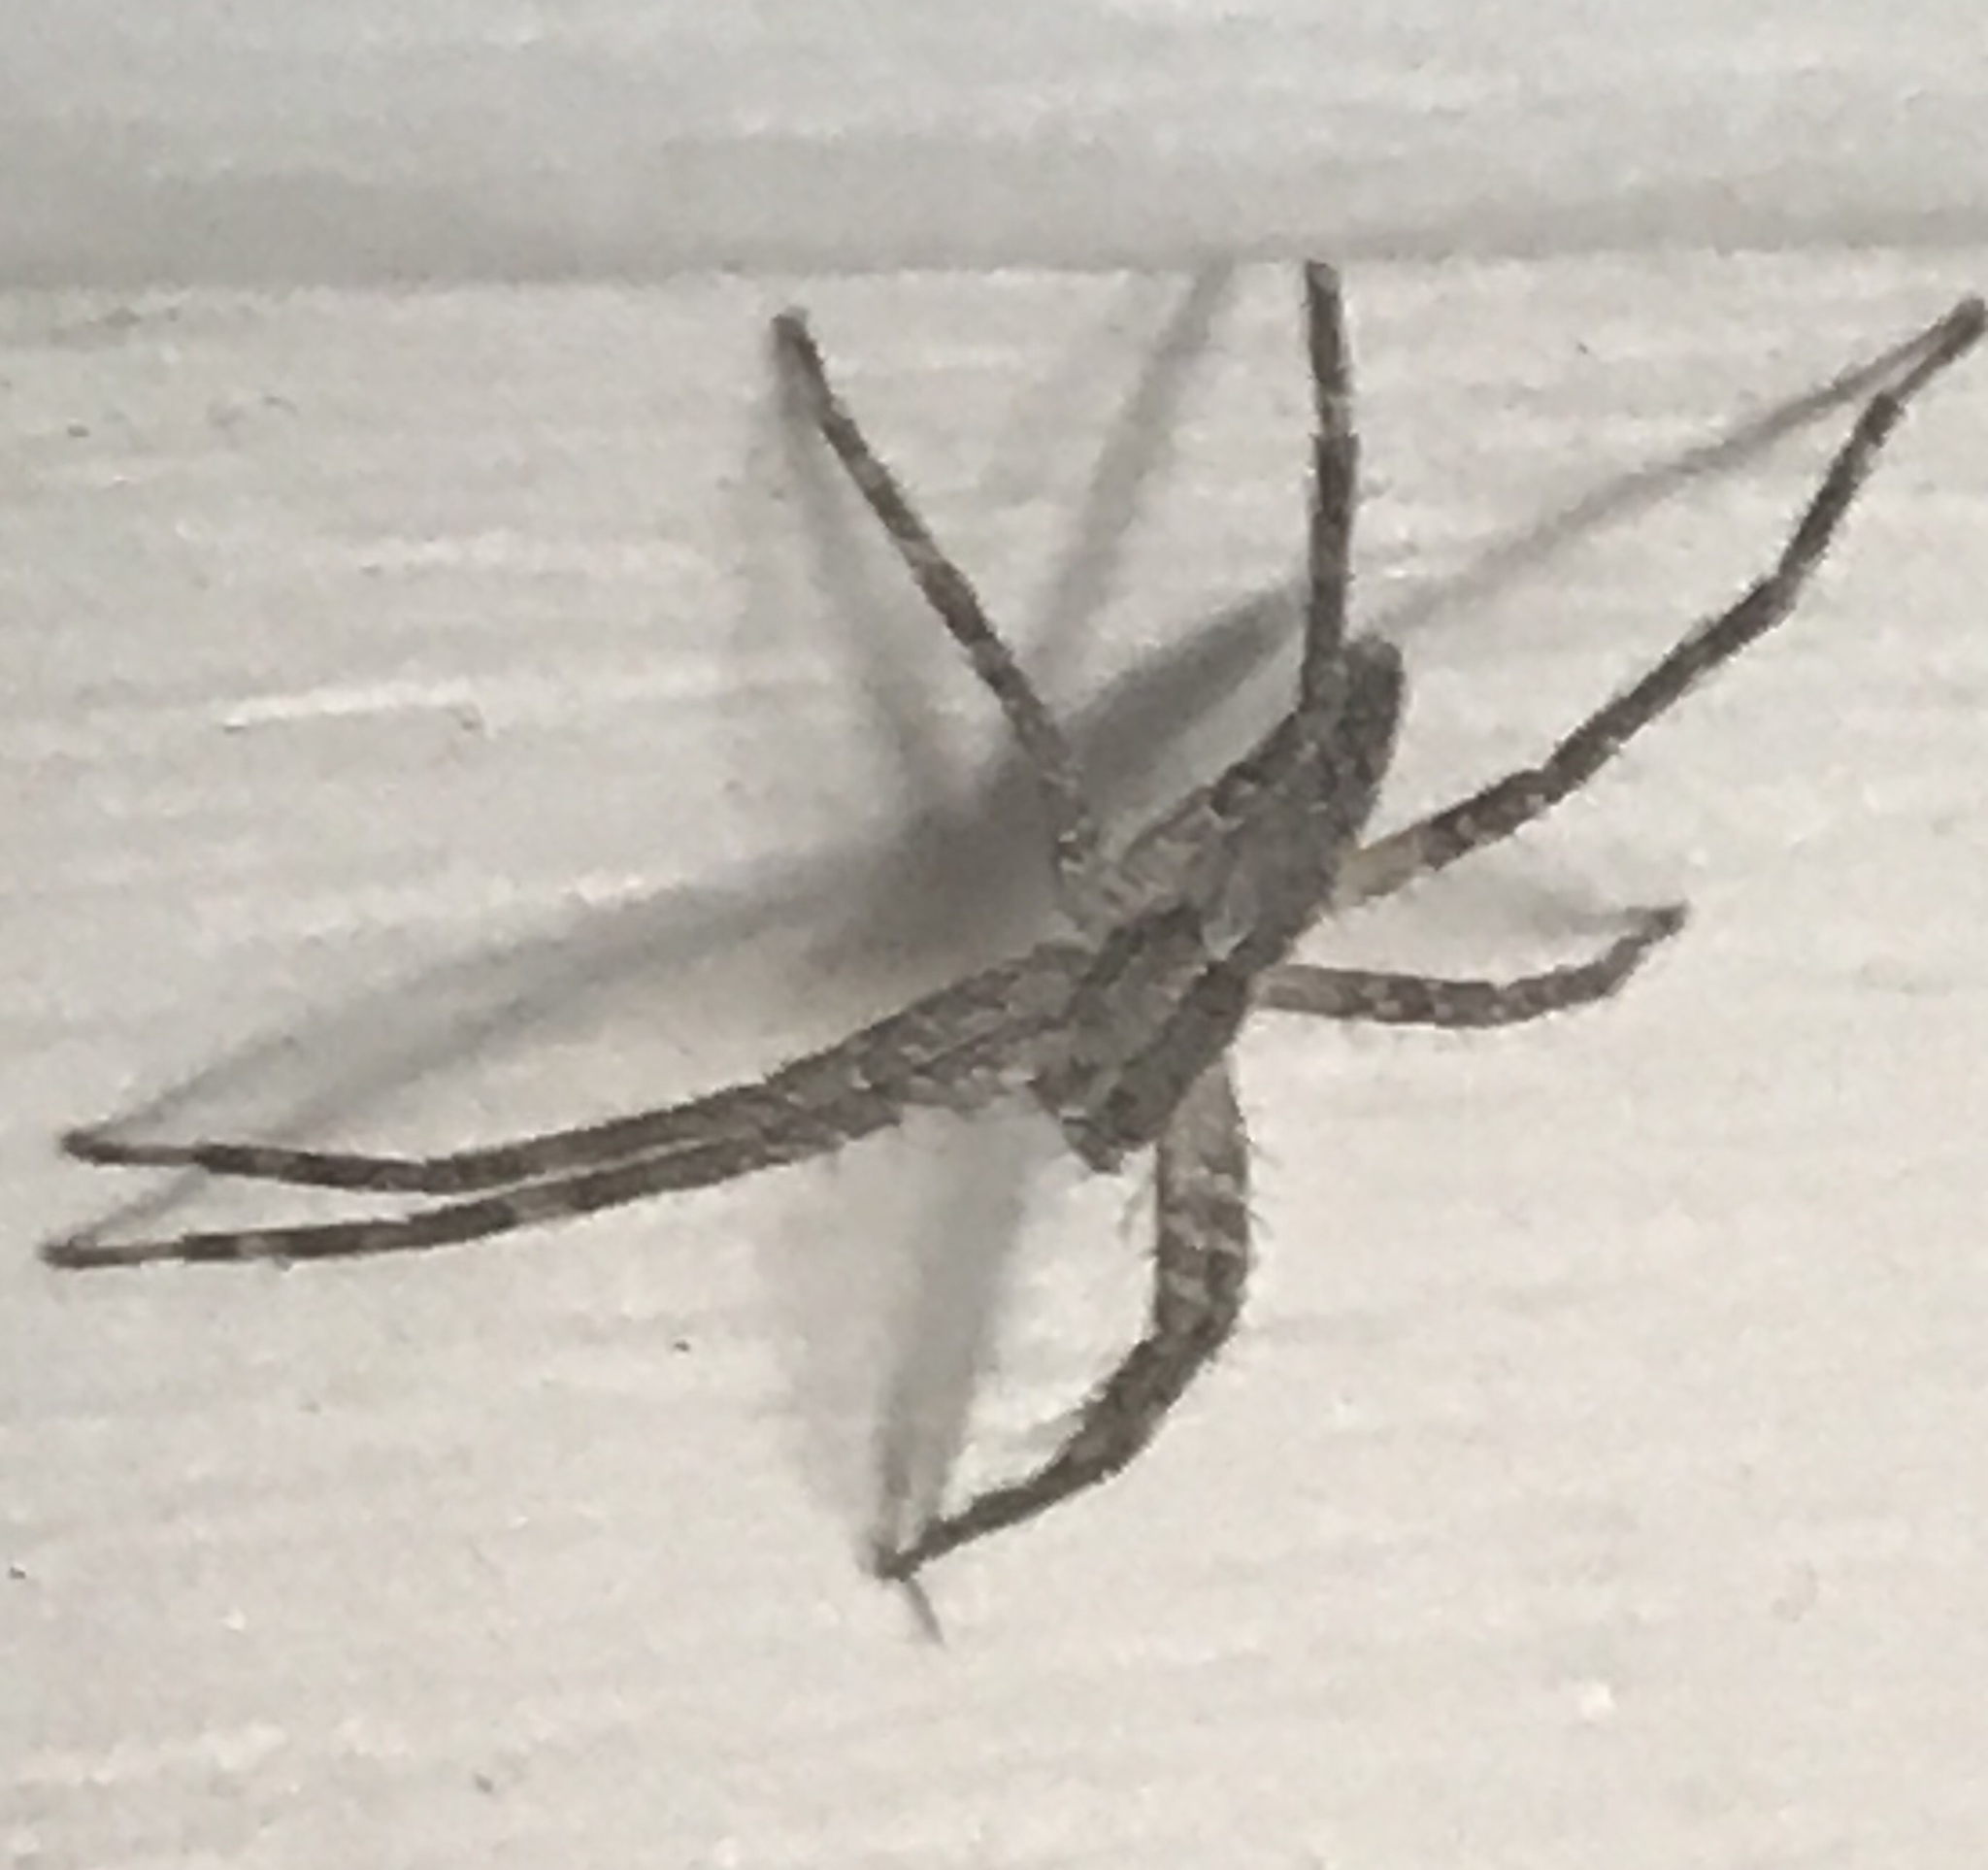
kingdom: Animalia
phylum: Arthropoda
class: Arachnida
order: Araneae
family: Pisauridae
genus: Pisaurina
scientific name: Pisaurina mira
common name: American nursery web spider
